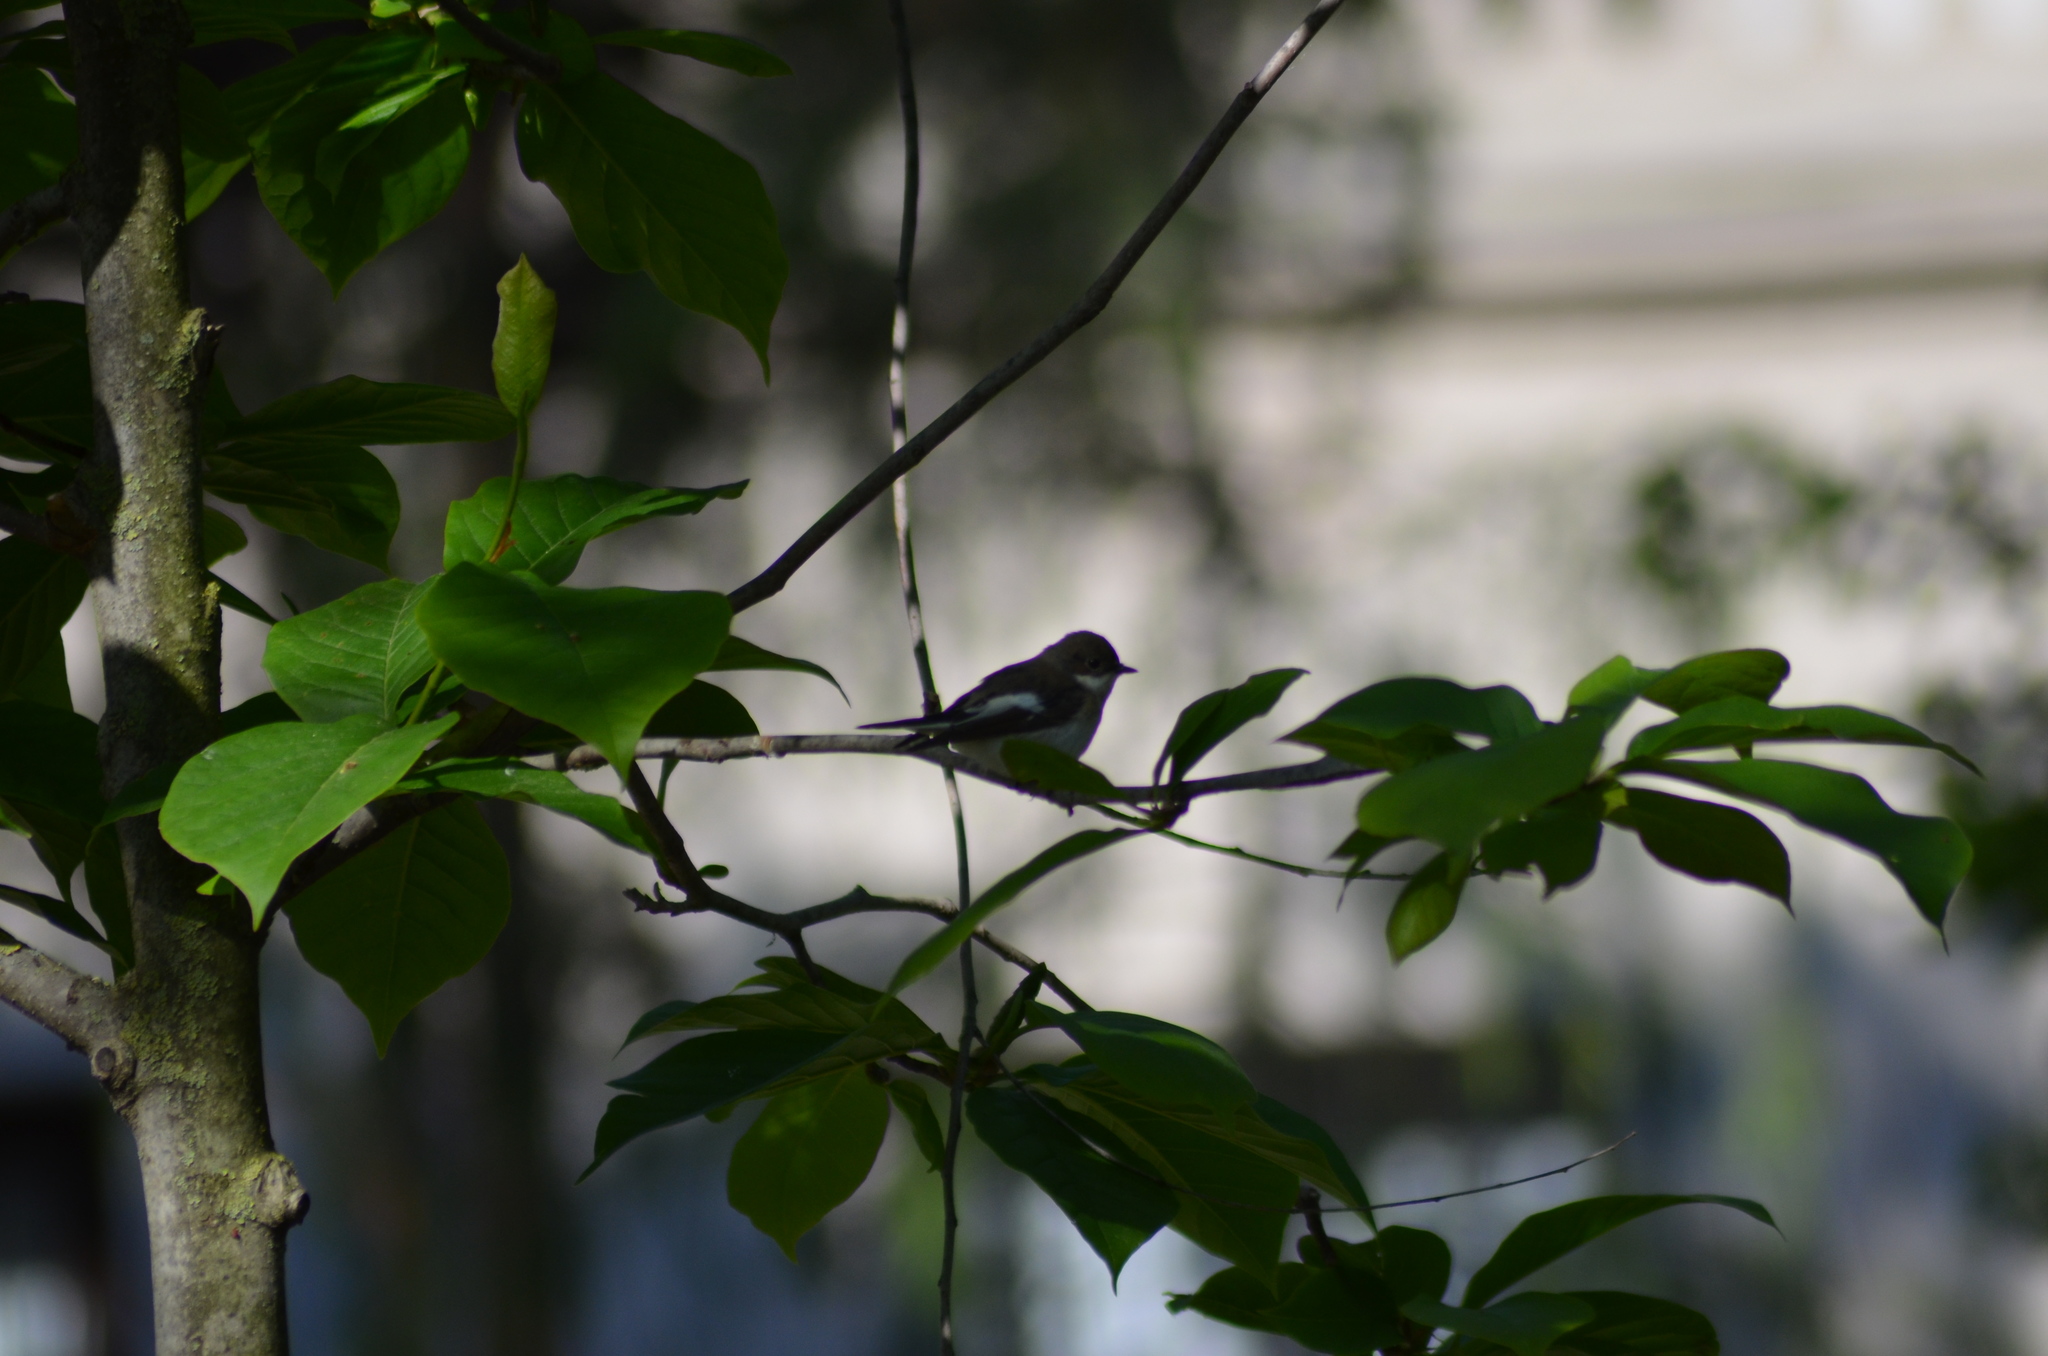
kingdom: Animalia
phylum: Chordata
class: Aves
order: Passeriformes
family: Muscicapidae
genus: Ficedula
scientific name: Ficedula hypoleuca
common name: European pied flycatcher
